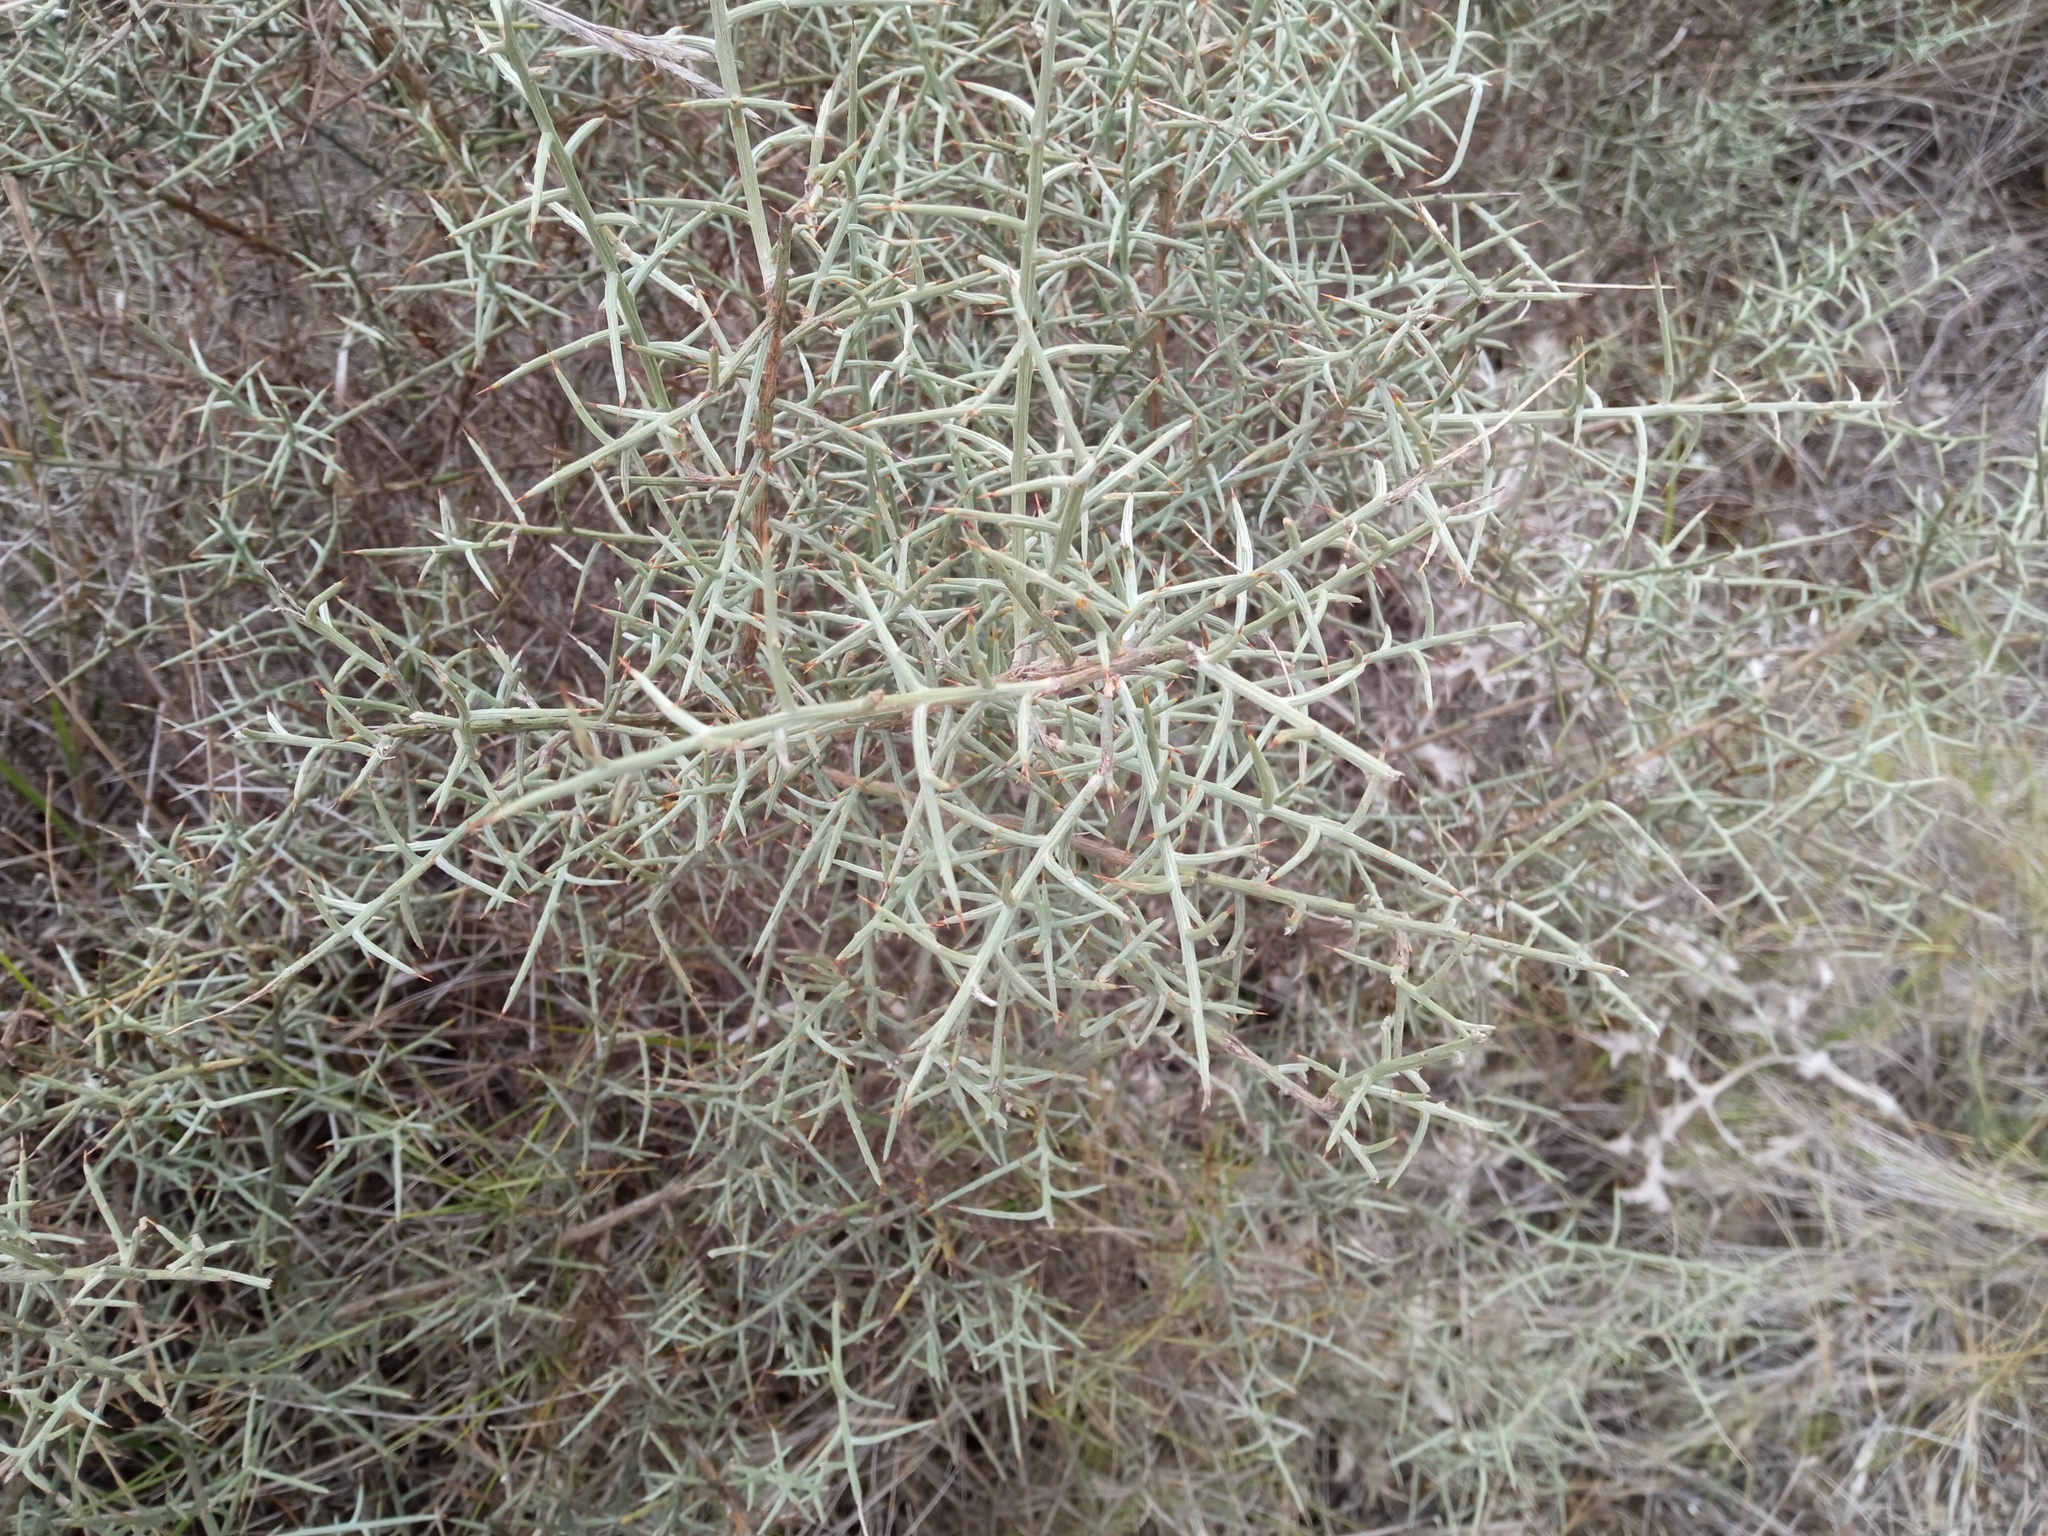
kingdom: Plantae
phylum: Tracheophyta
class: Magnoliopsida
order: Fabales
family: Fabaceae
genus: Genista
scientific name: Genista scorpius
